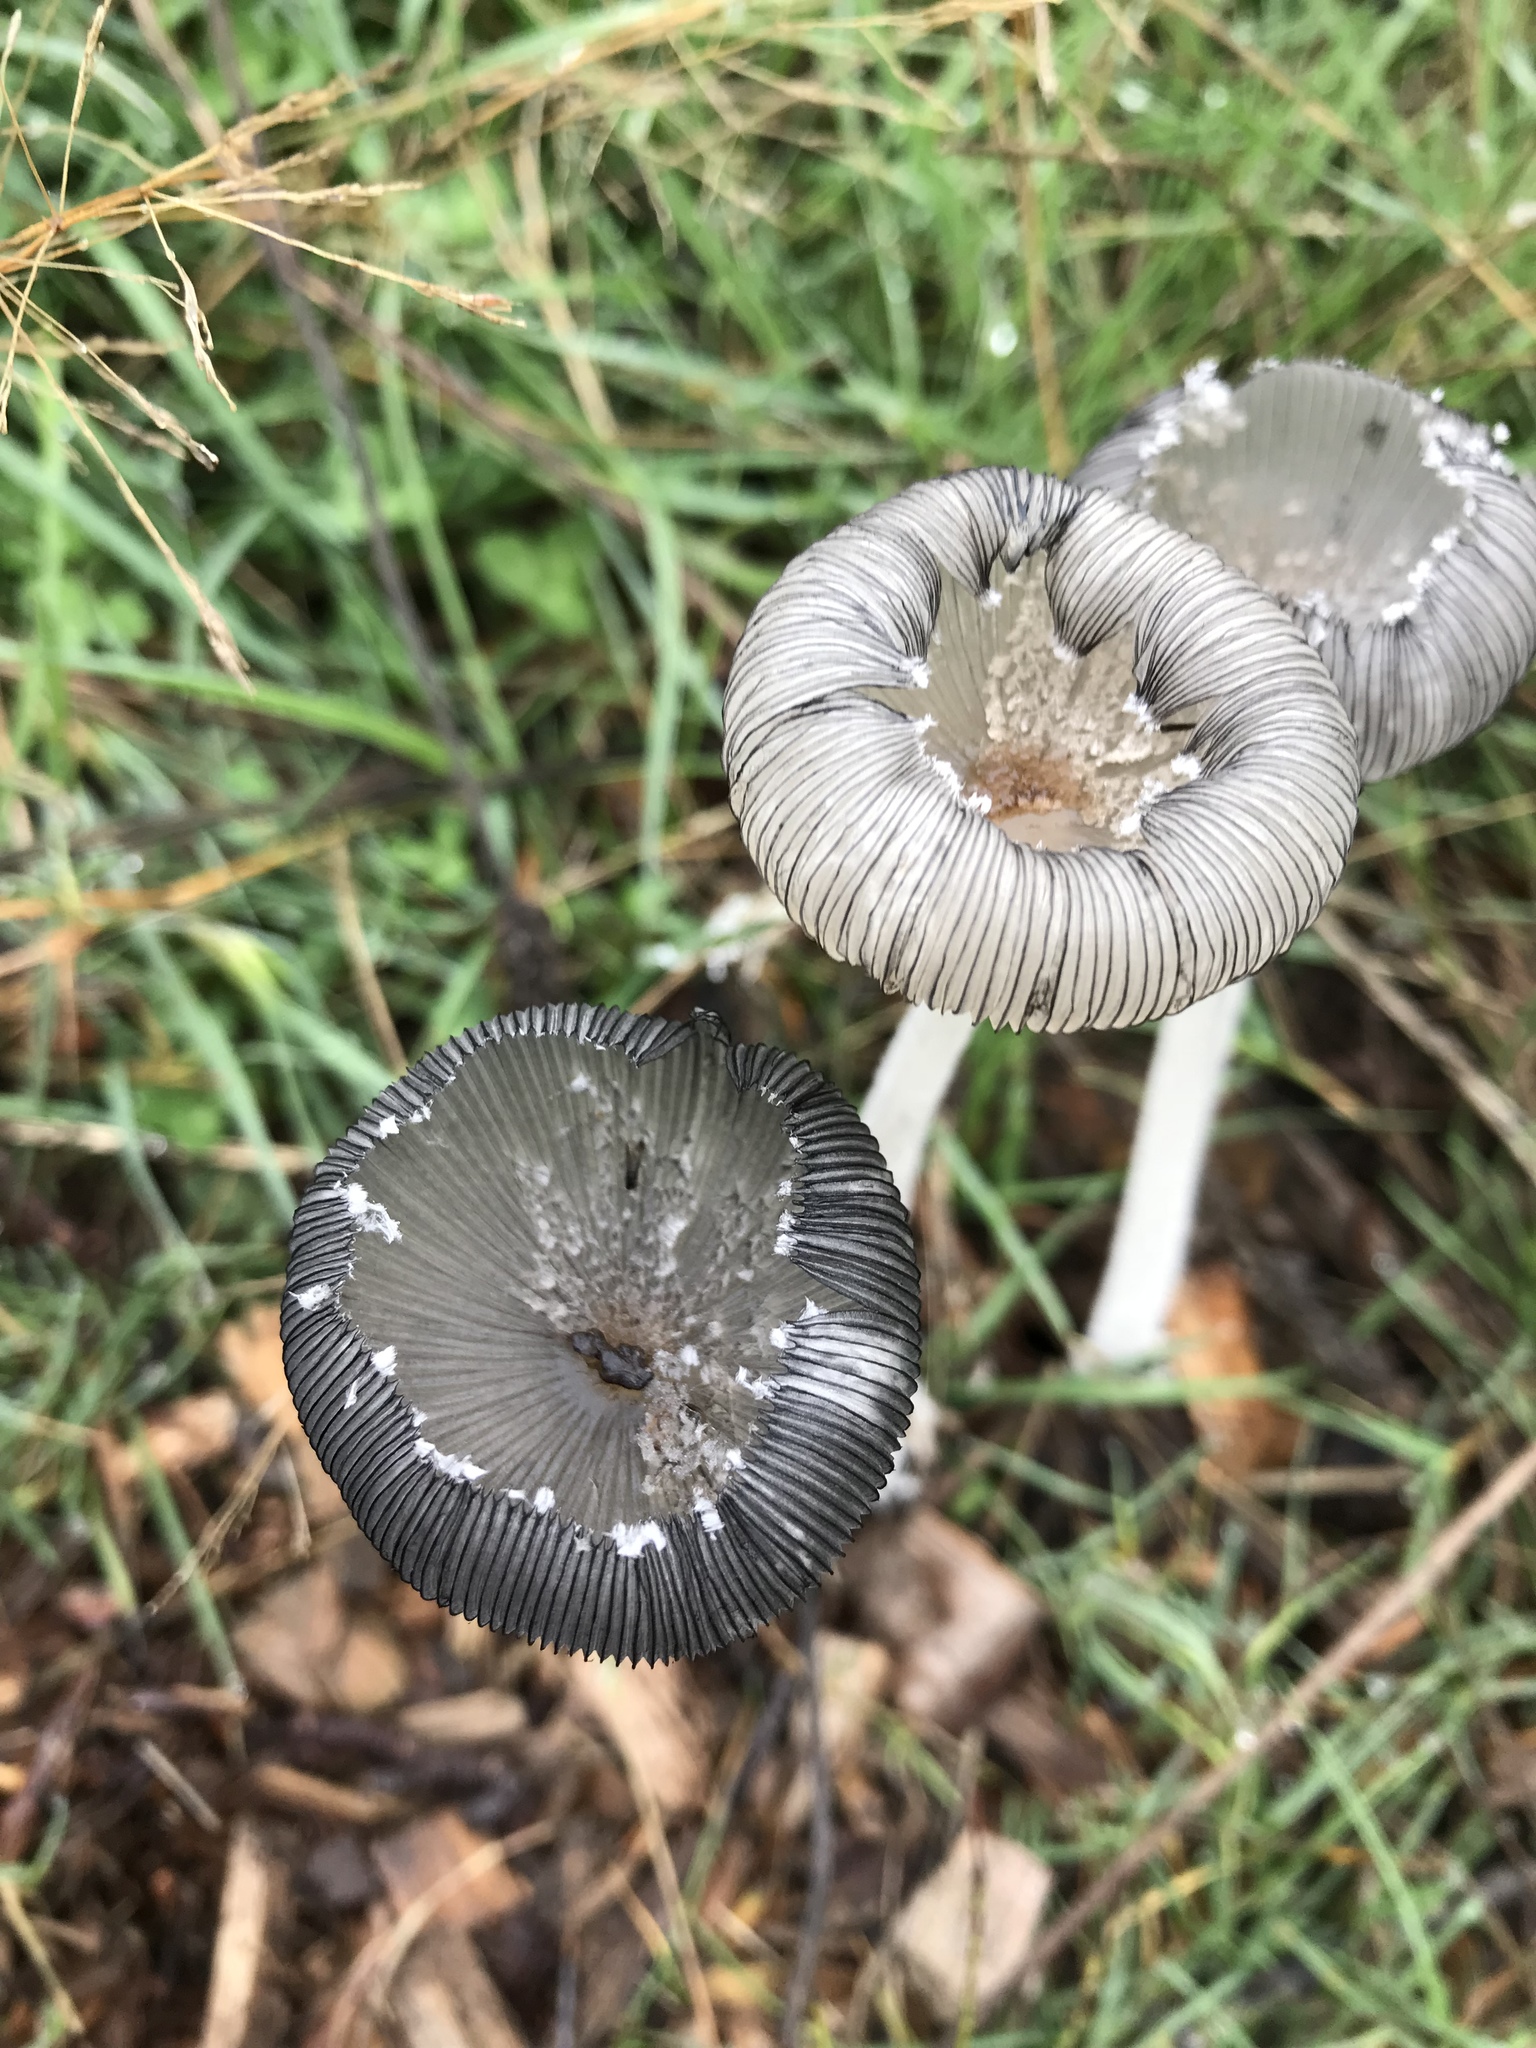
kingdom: Fungi
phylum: Basidiomycota
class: Agaricomycetes
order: Agaricales
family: Psathyrellaceae
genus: Coprinopsis
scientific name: Coprinopsis lagopus
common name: Hare'sfoot inkcap
